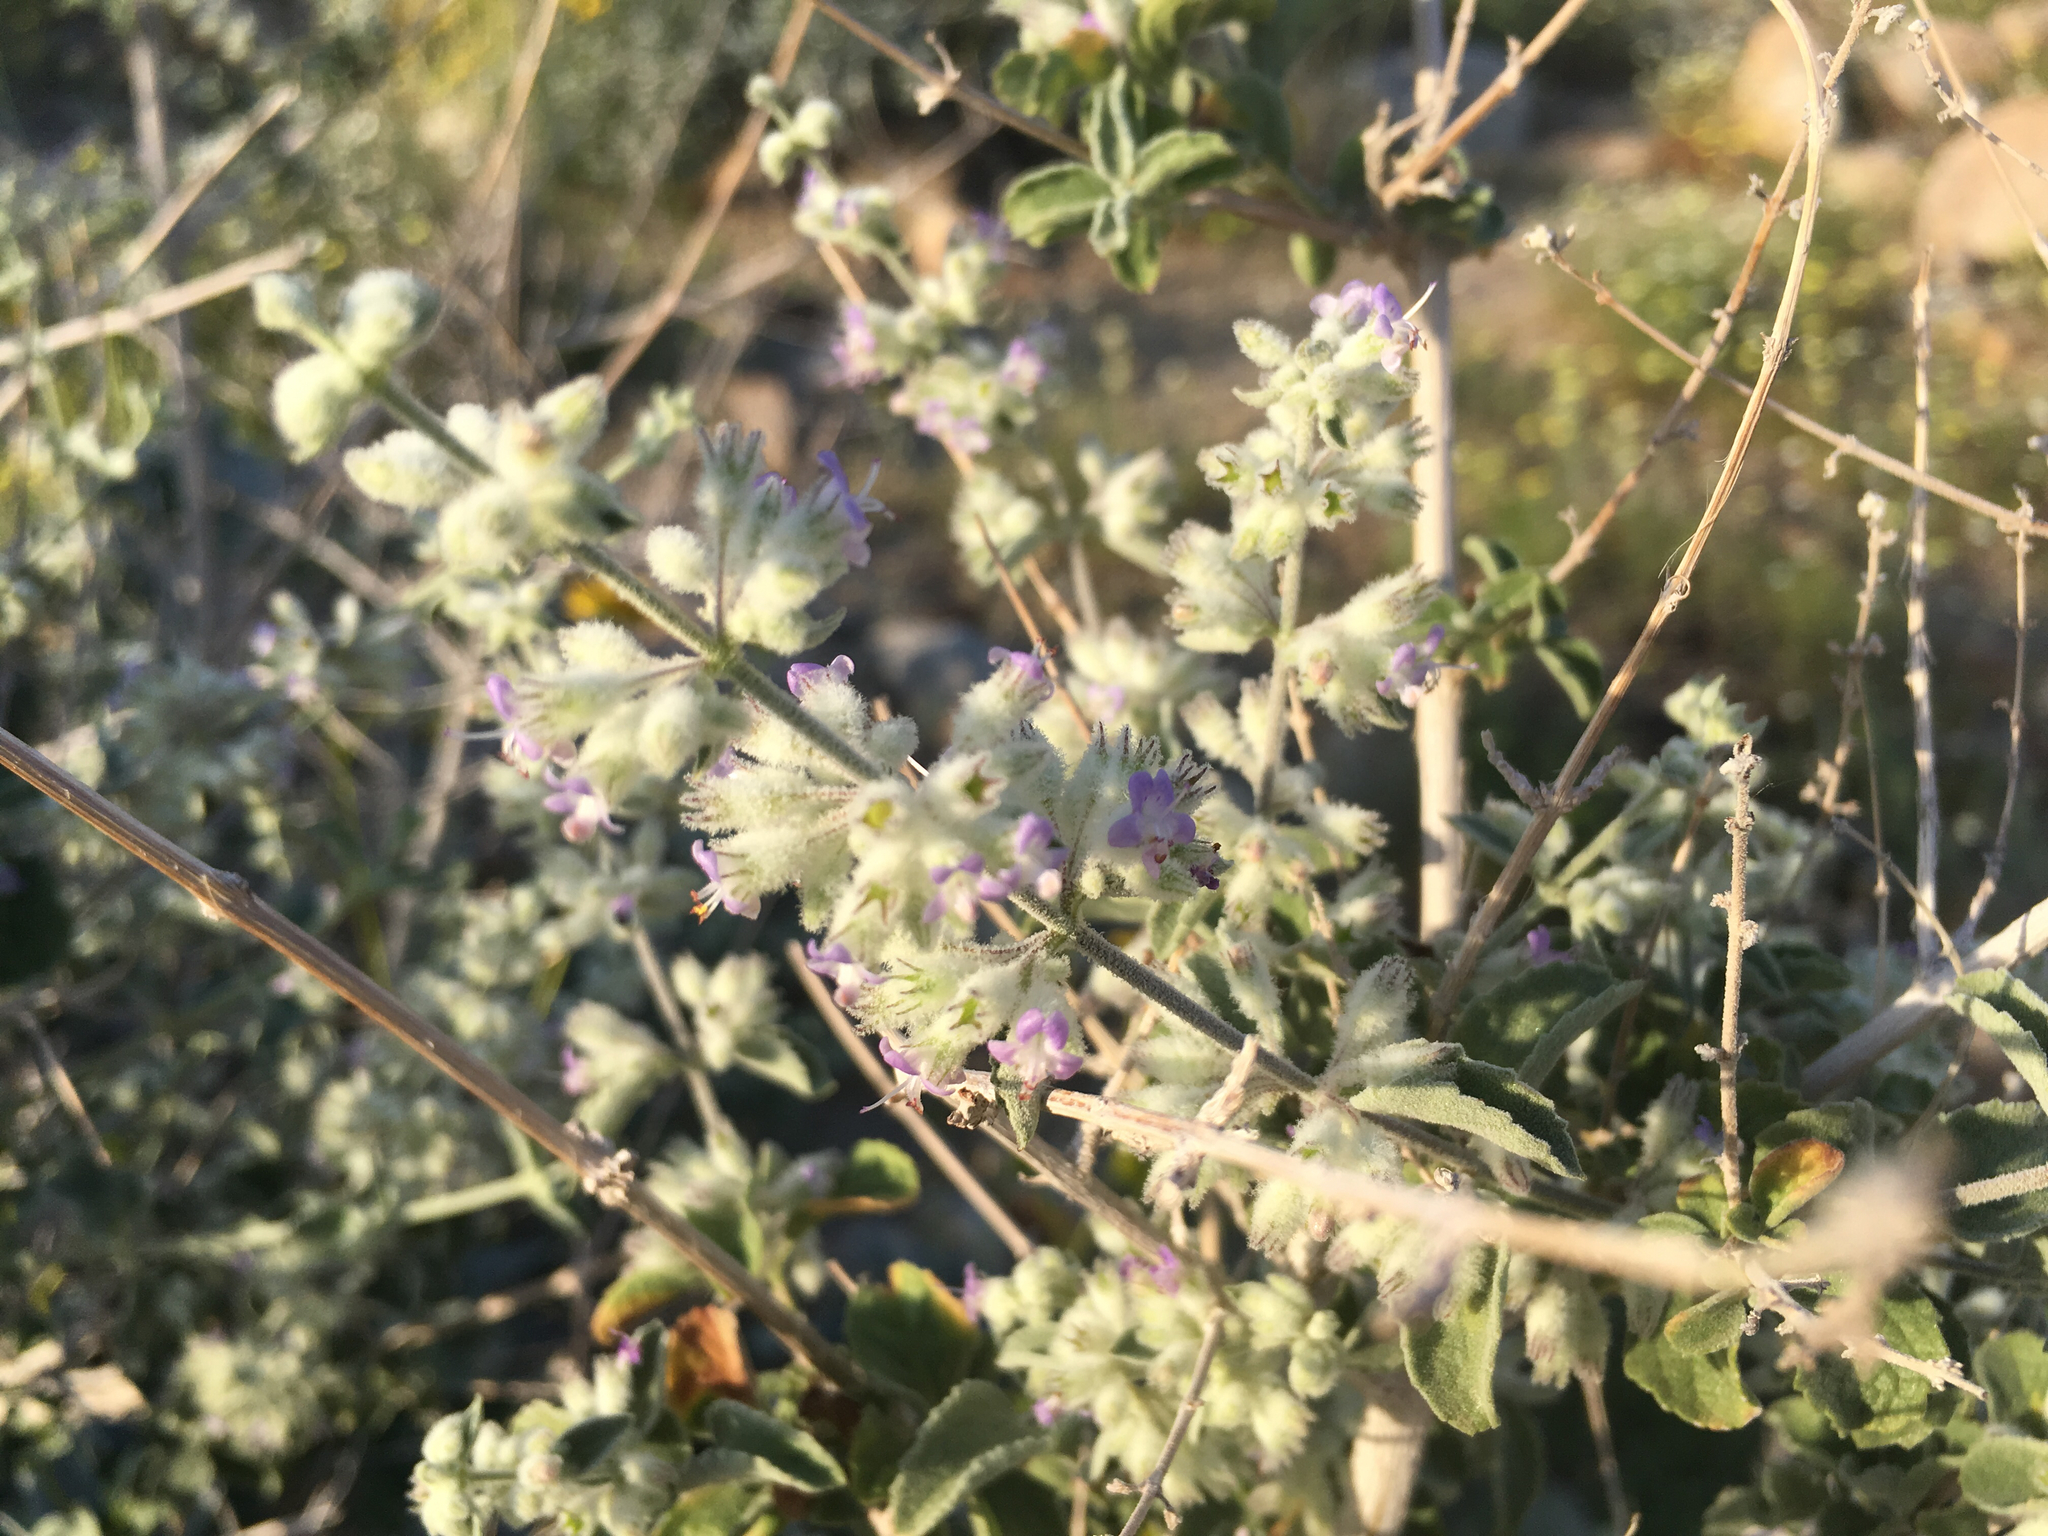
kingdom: Plantae
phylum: Tracheophyta
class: Magnoliopsida
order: Lamiales
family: Lamiaceae
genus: Condea
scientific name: Condea emoryi
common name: Chia
